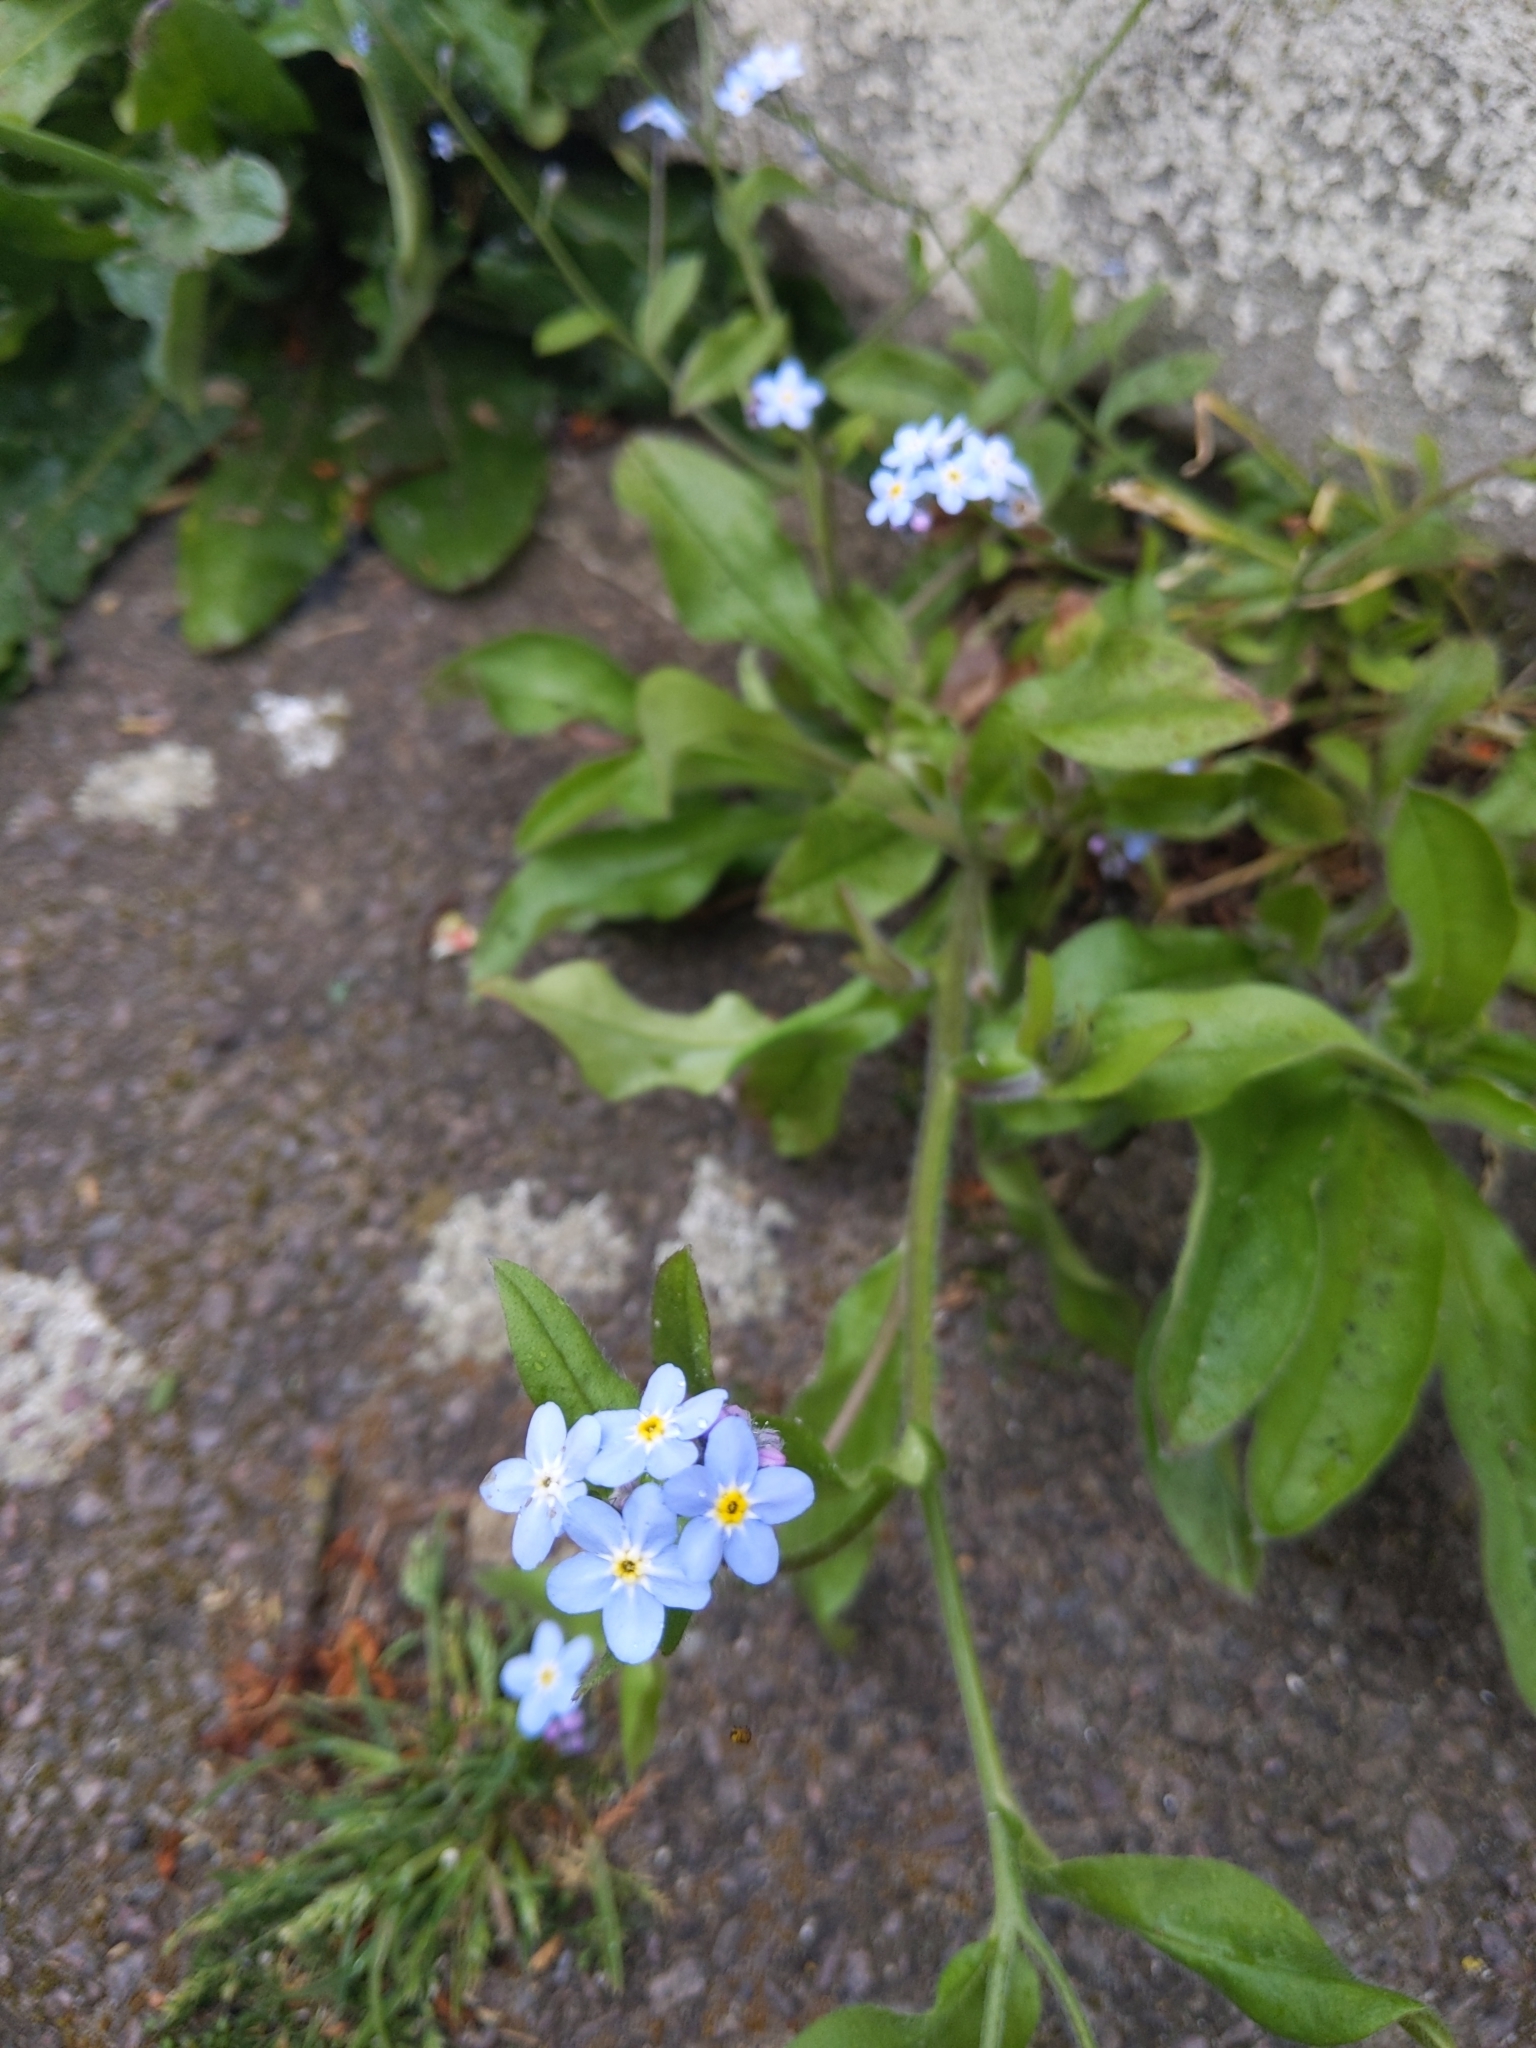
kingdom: Plantae
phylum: Tracheophyta
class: Magnoliopsida
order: Boraginales
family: Boraginaceae
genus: Myosotis
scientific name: Myosotis sylvatica
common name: Wood forget-me-not
